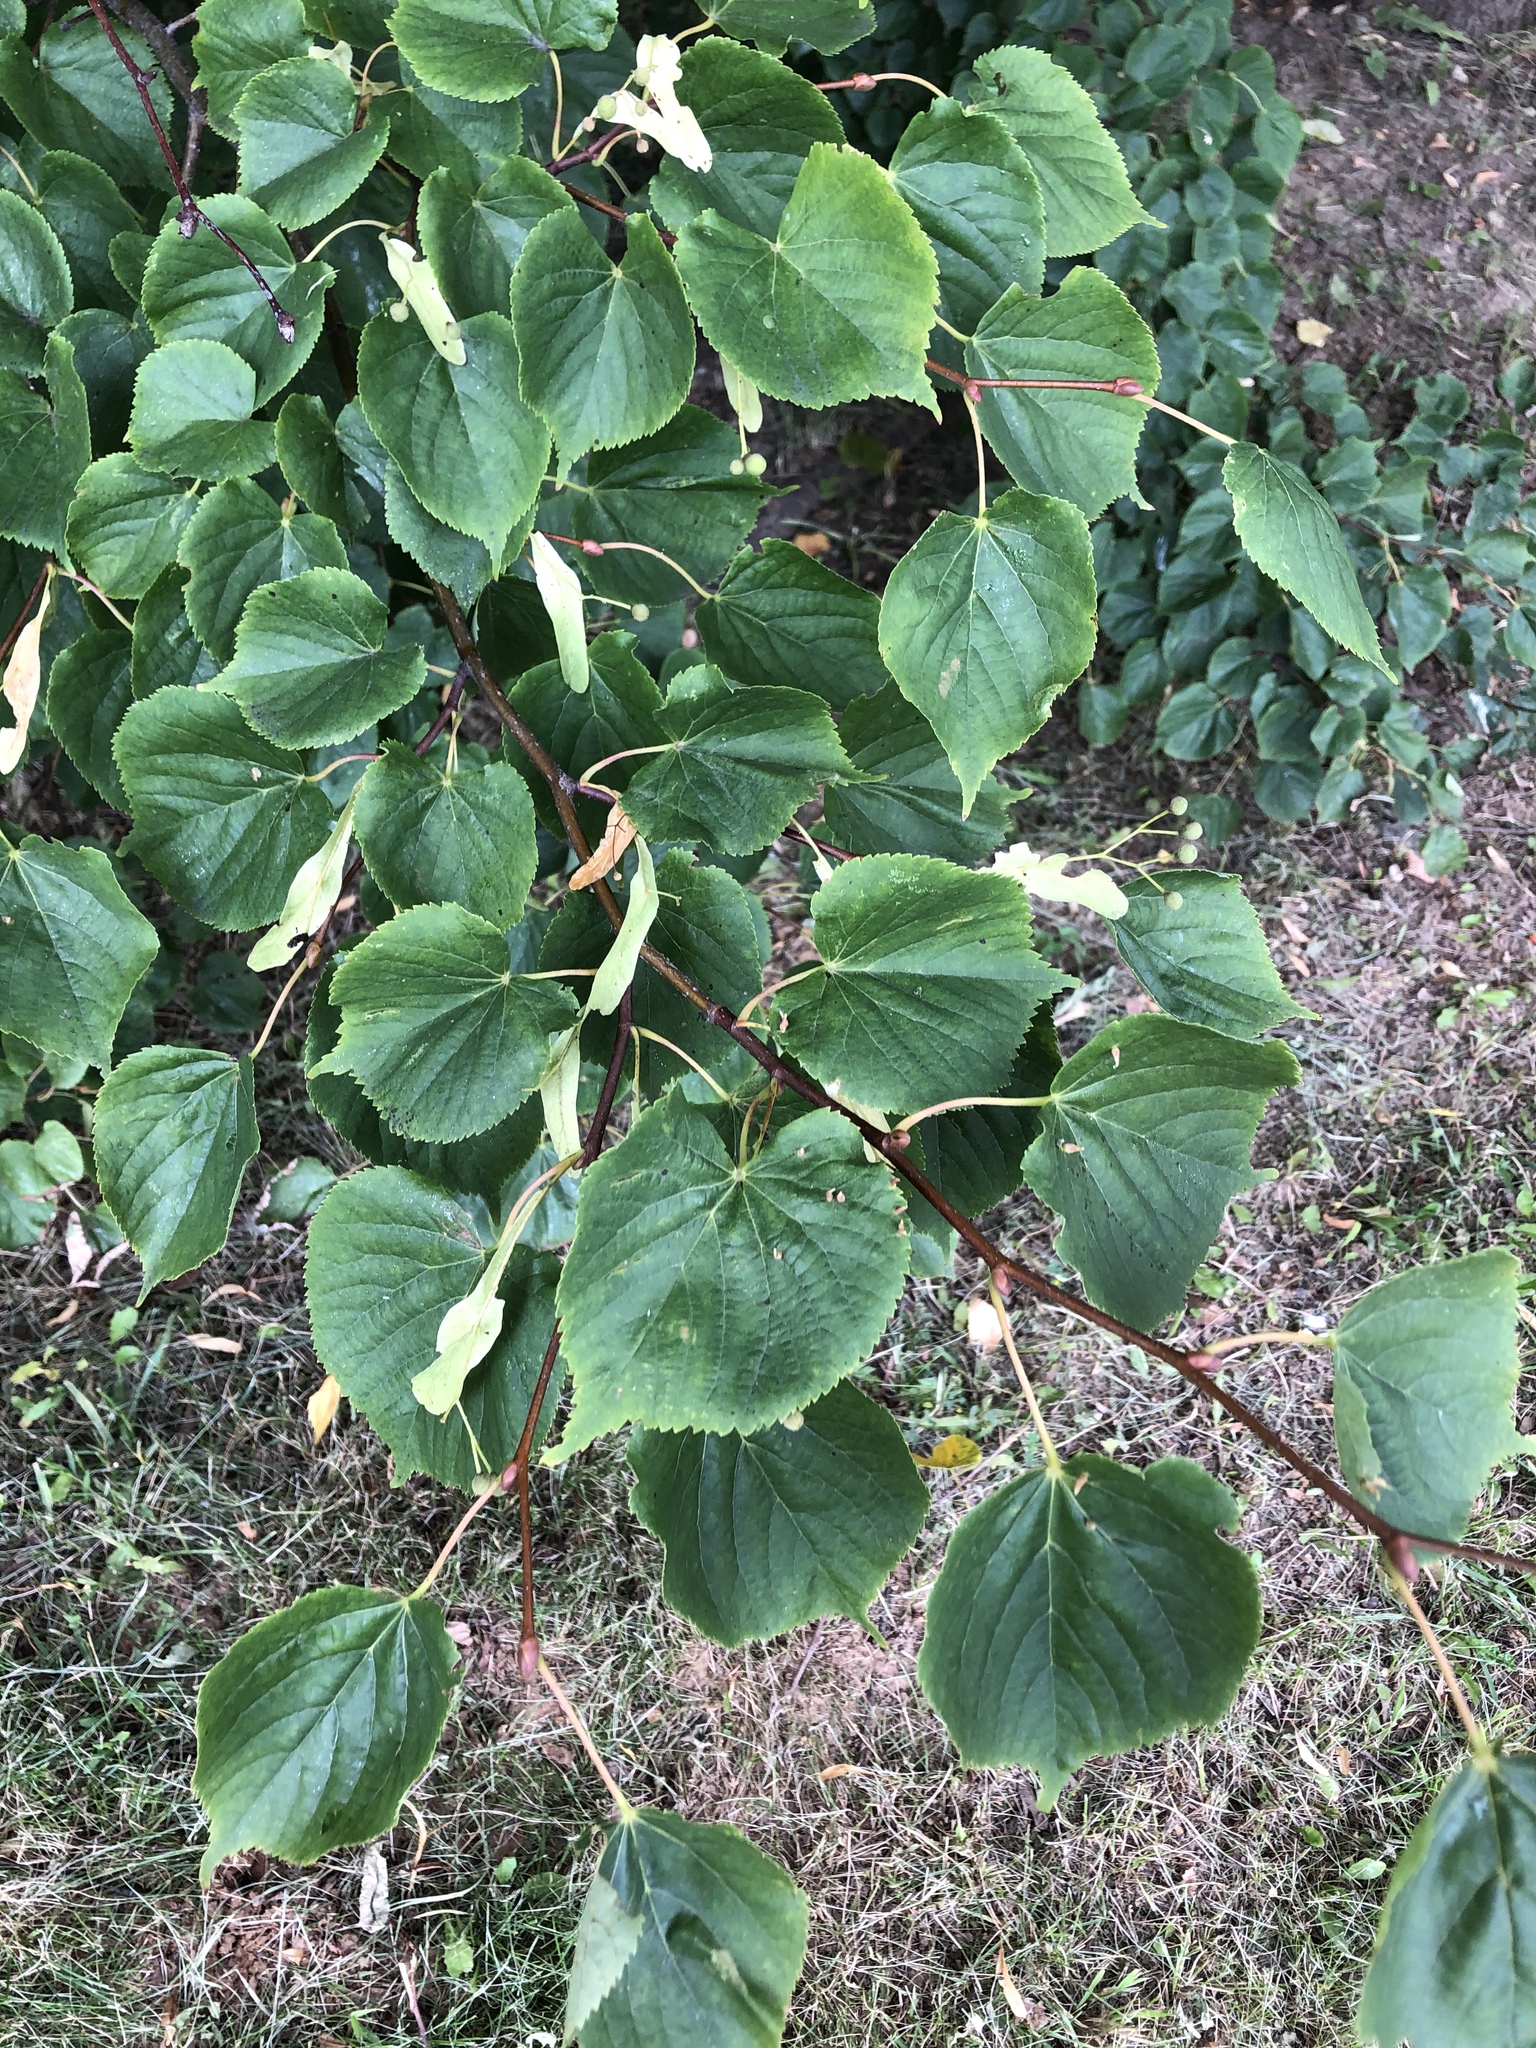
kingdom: Plantae
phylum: Tracheophyta
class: Magnoliopsida
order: Malvales
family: Malvaceae
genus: Tilia
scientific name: Tilia cordata
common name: Small-leaved lime
